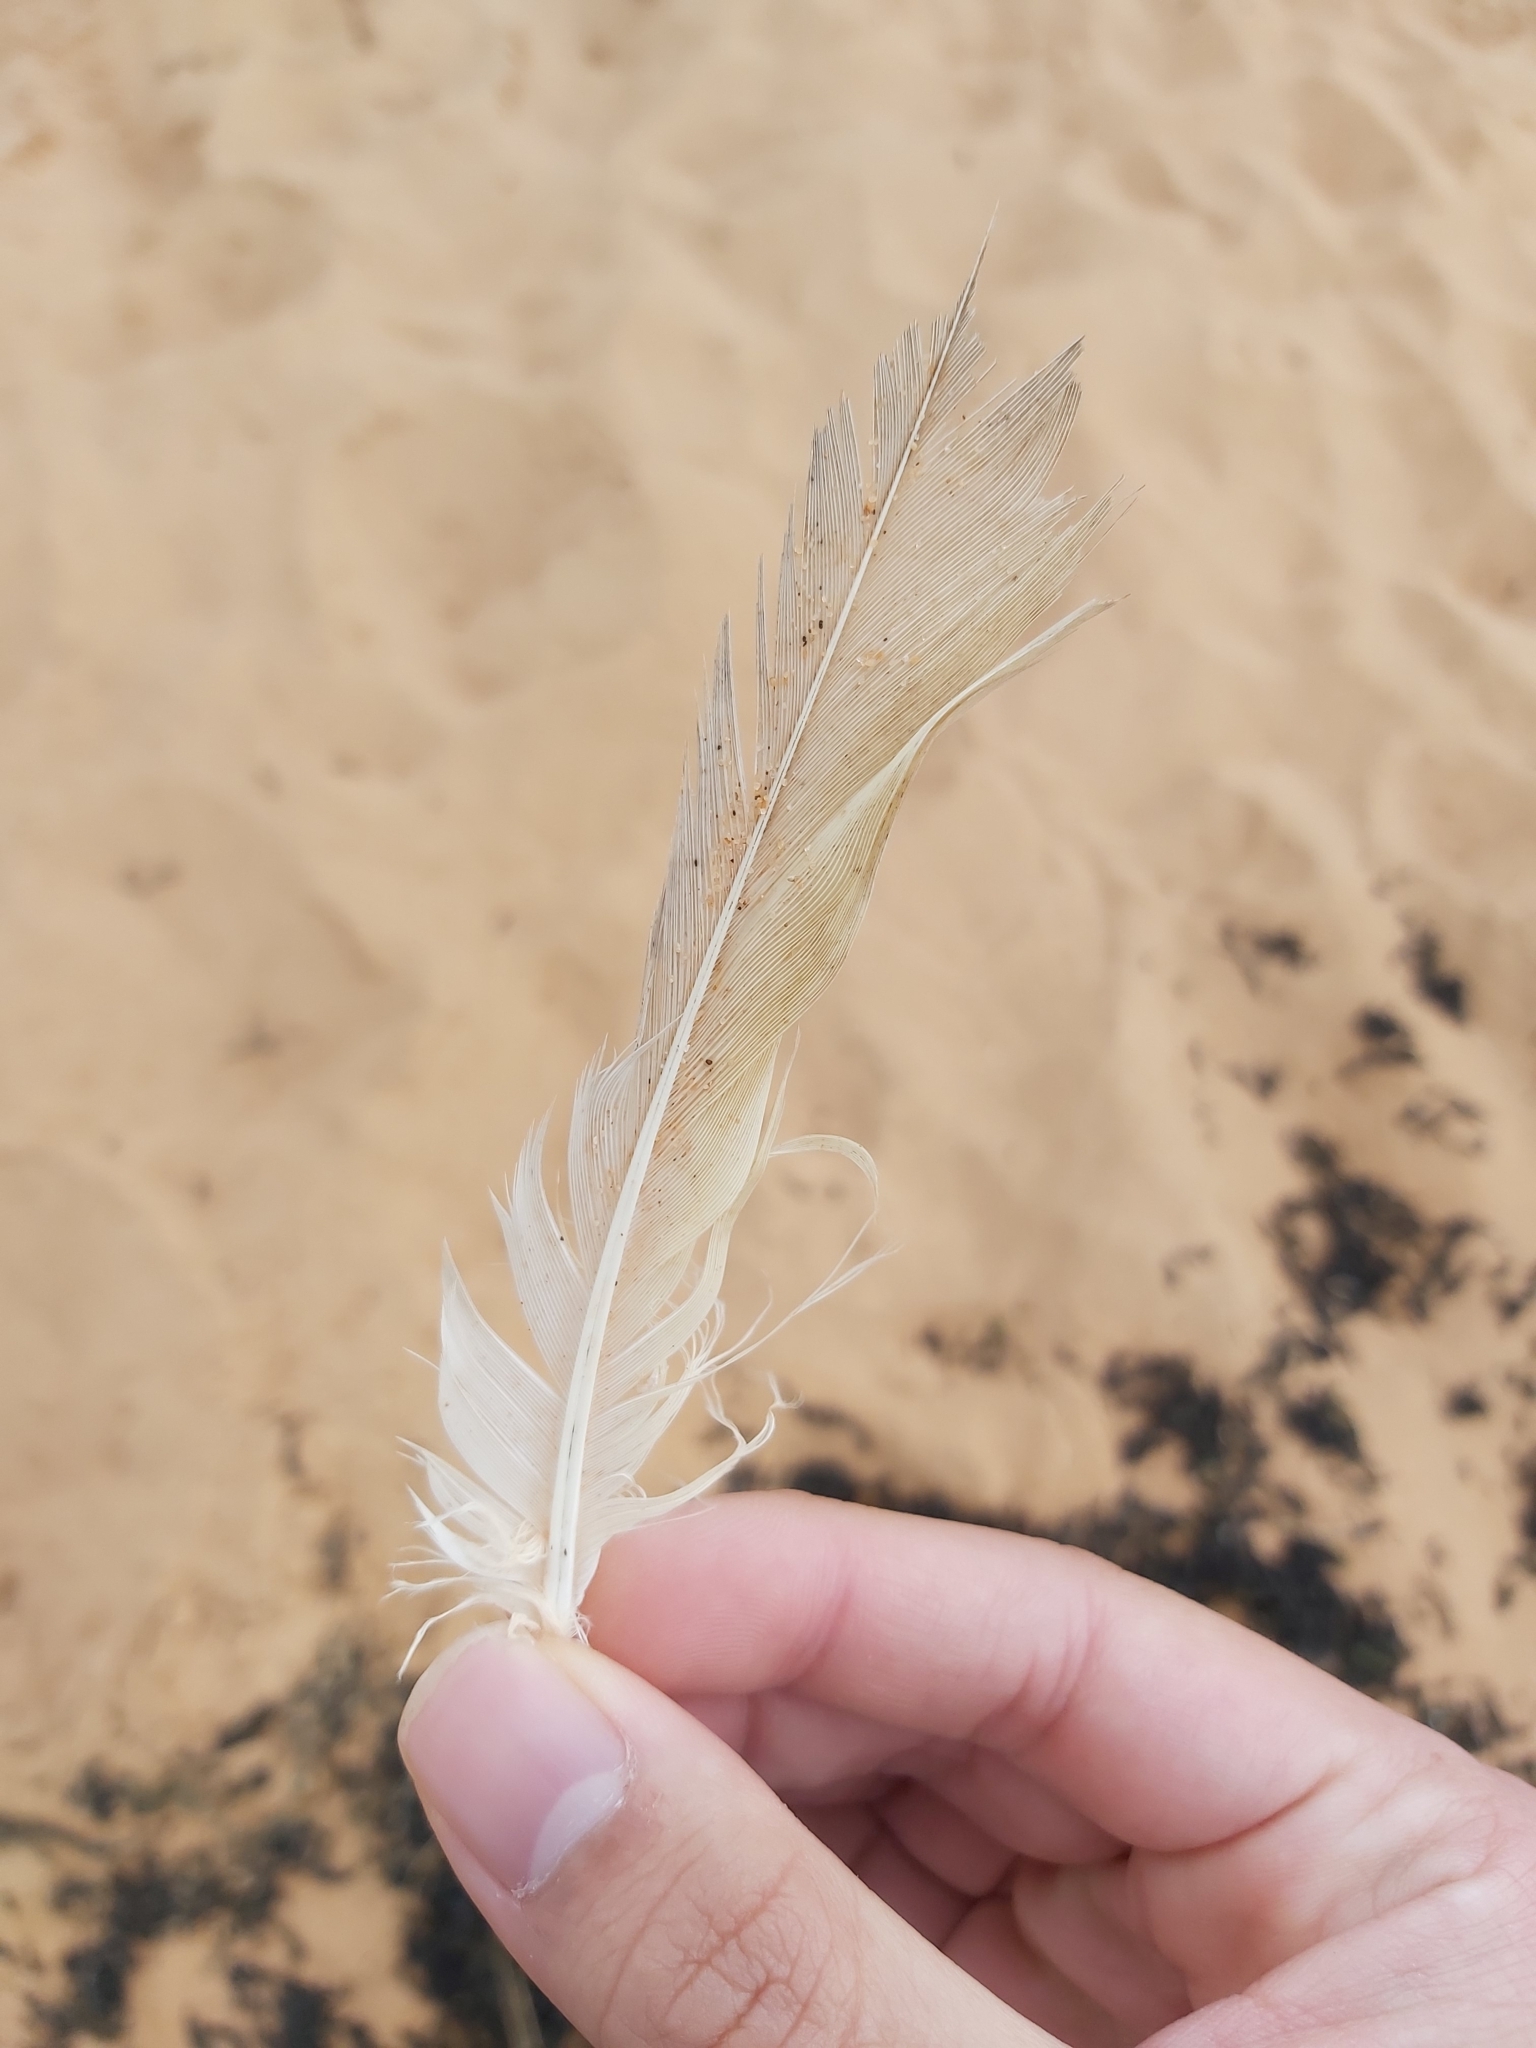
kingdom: Animalia
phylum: Chordata
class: Aves
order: Psittaciformes
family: Psittacidae
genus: Cacatua
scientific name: Cacatua galerita
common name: Sulphur-crested cockatoo
